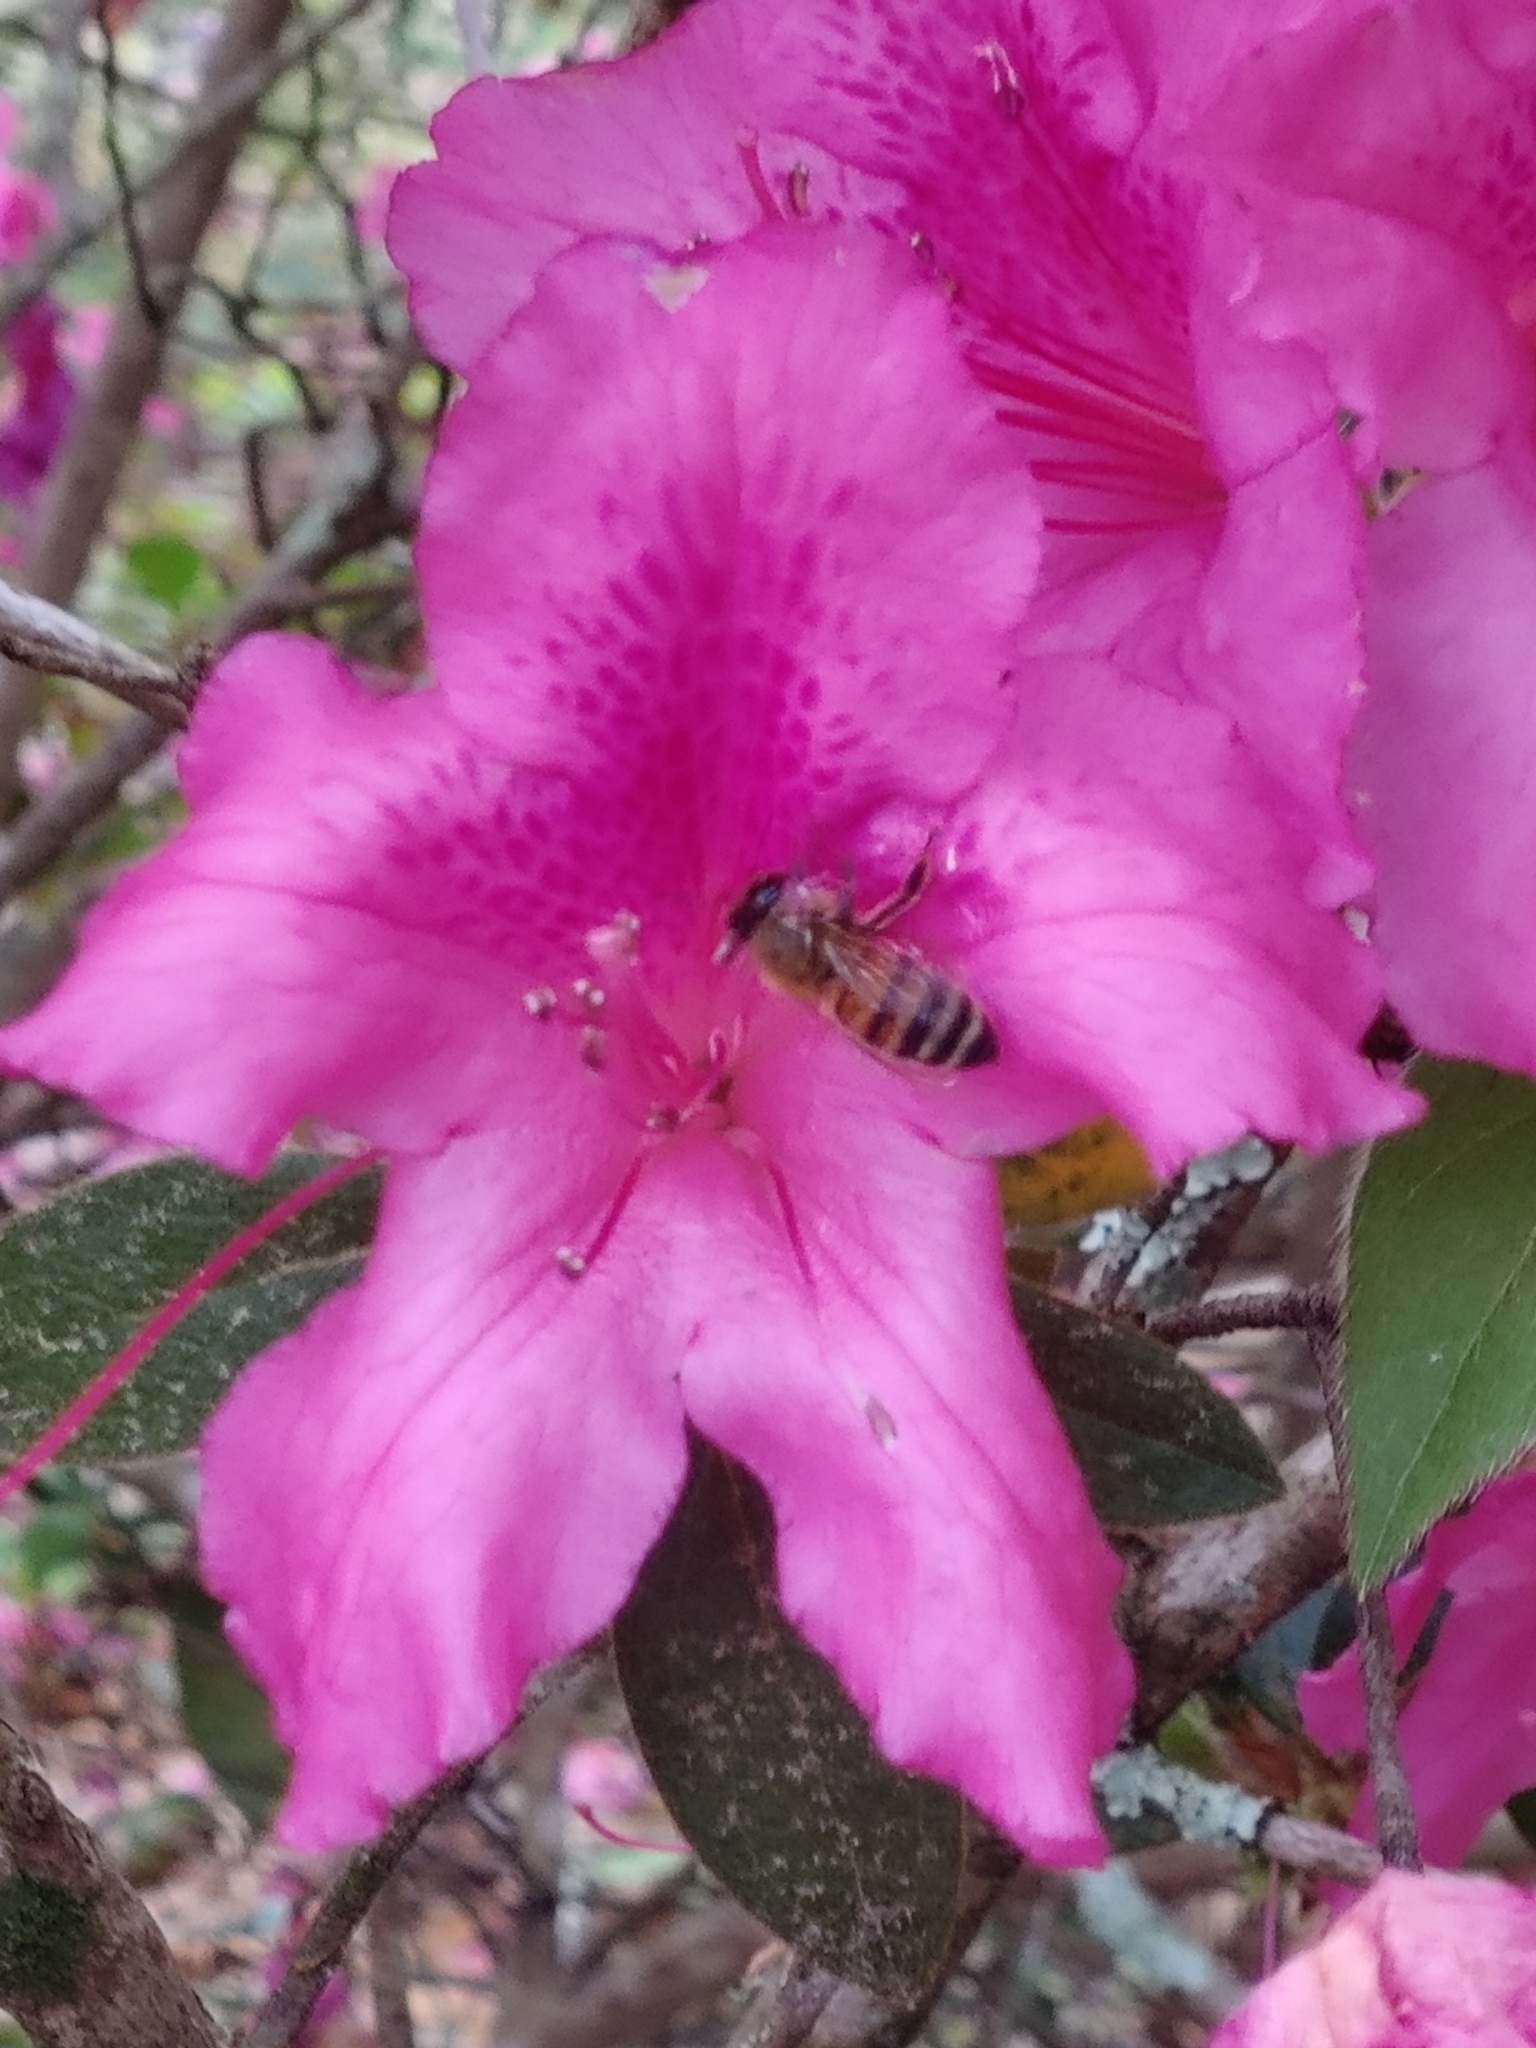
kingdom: Animalia
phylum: Arthropoda
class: Insecta
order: Hymenoptera
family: Apidae
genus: Apis
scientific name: Apis mellifera
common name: Honey bee
